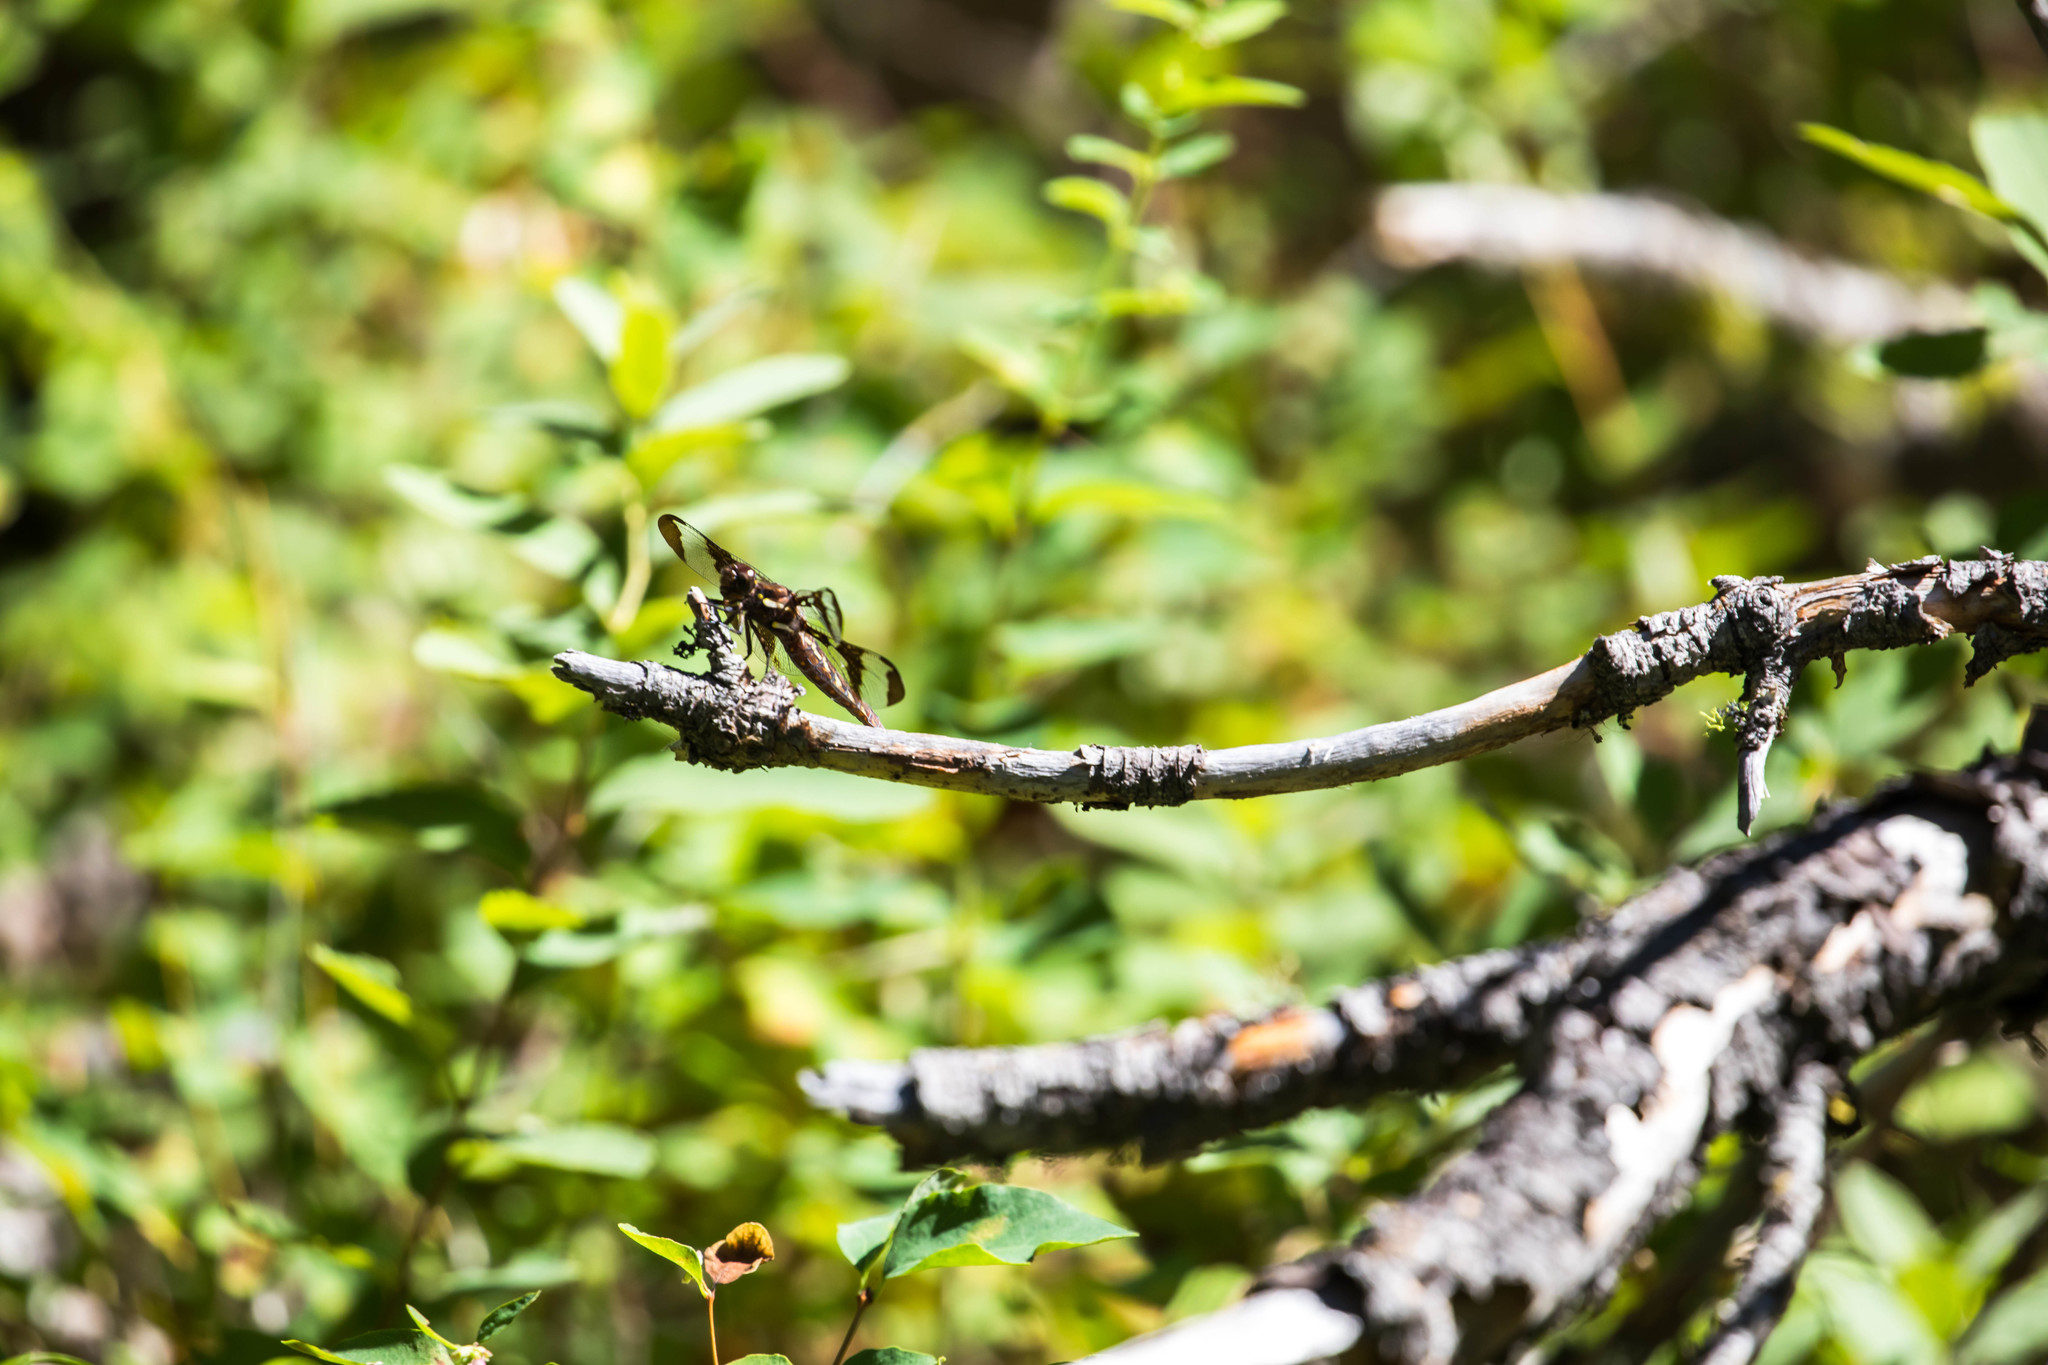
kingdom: Animalia
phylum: Arthropoda
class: Insecta
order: Odonata
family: Libellulidae
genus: Plathemis
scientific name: Plathemis lydia
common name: Common whitetail
